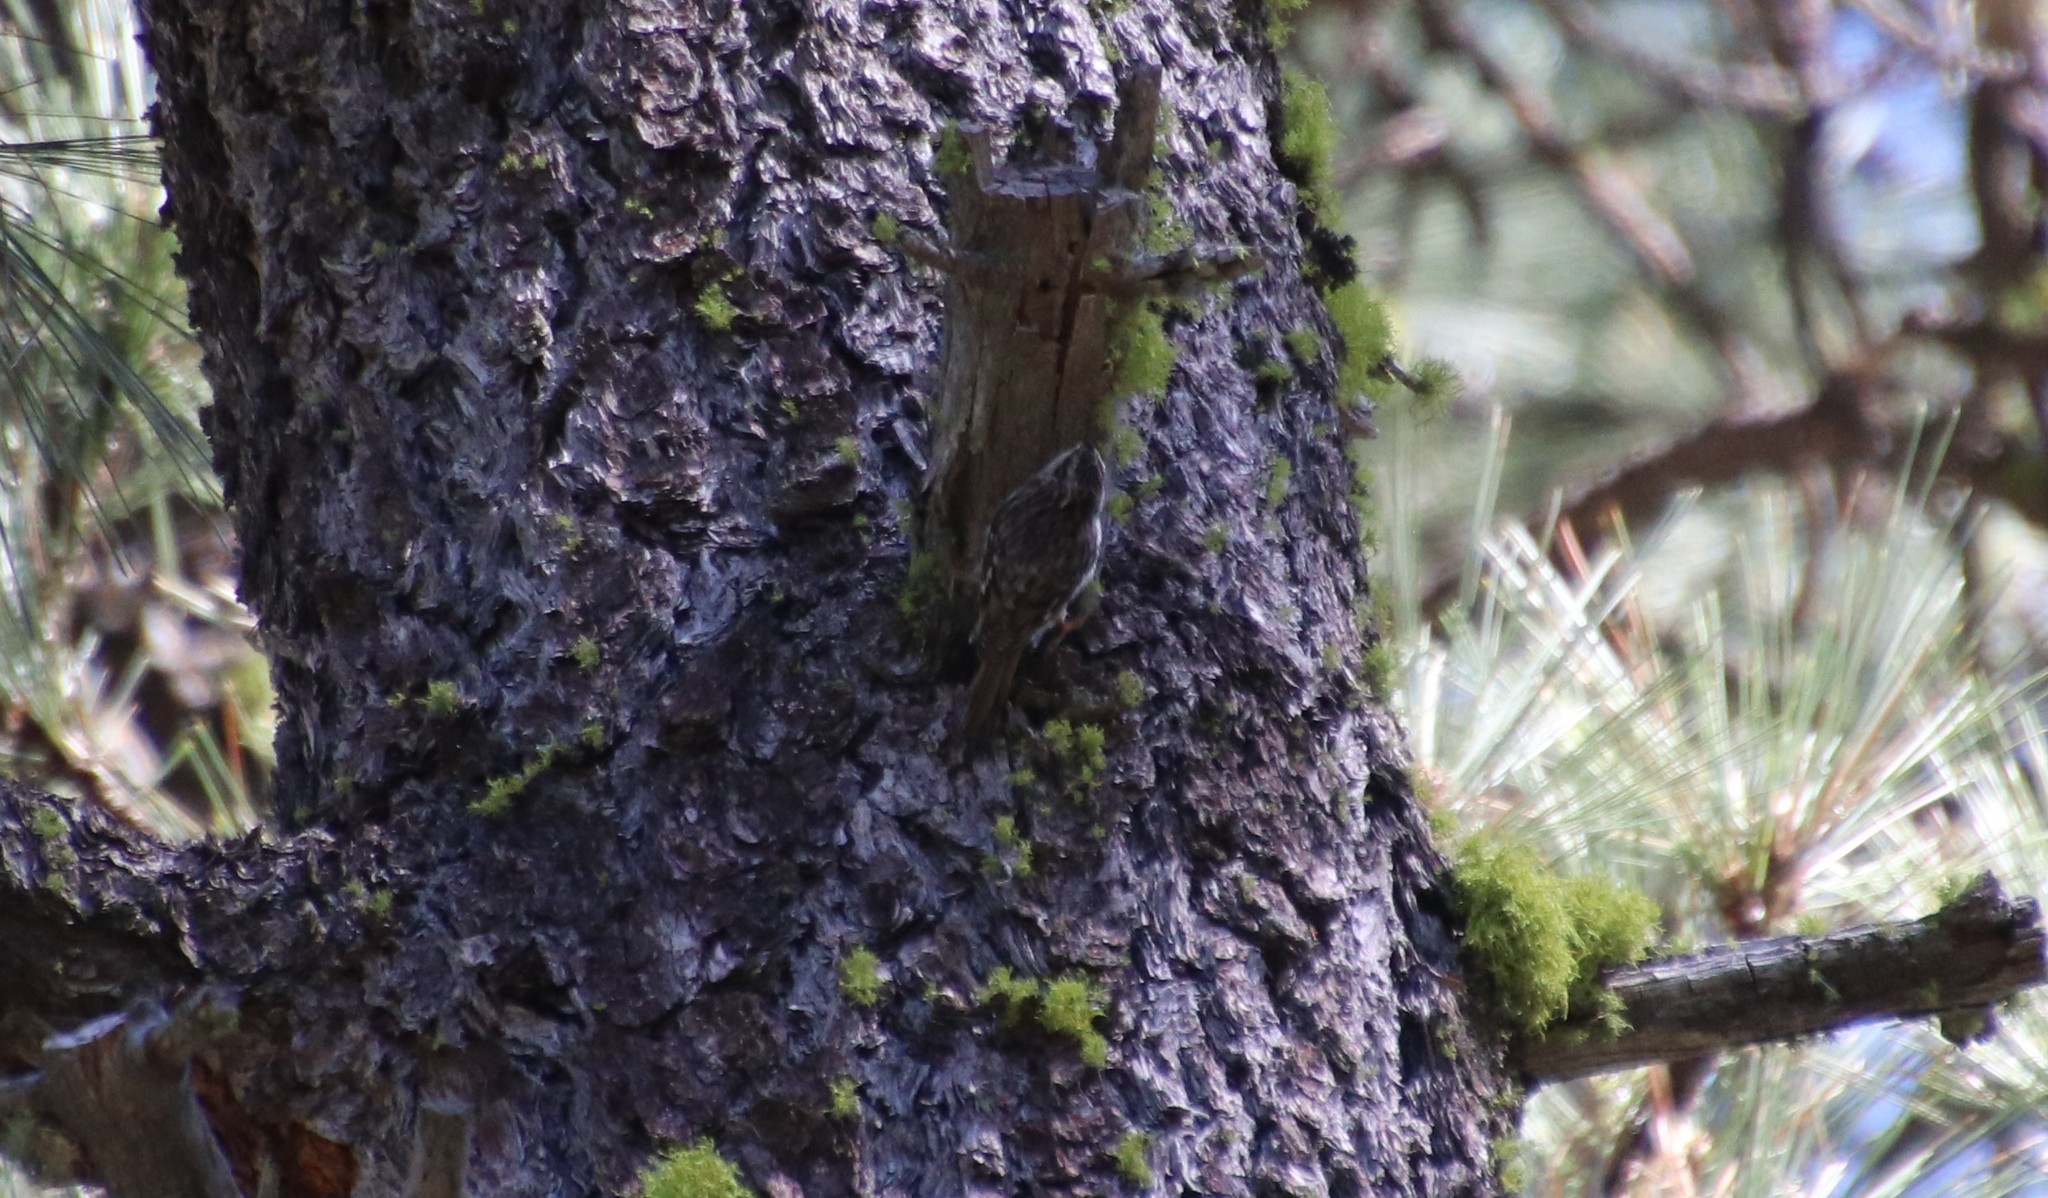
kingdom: Animalia
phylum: Chordata
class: Aves
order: Passeriformes
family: Certhiidae
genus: Certhia
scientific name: Certhia americana
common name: Brown creeper
